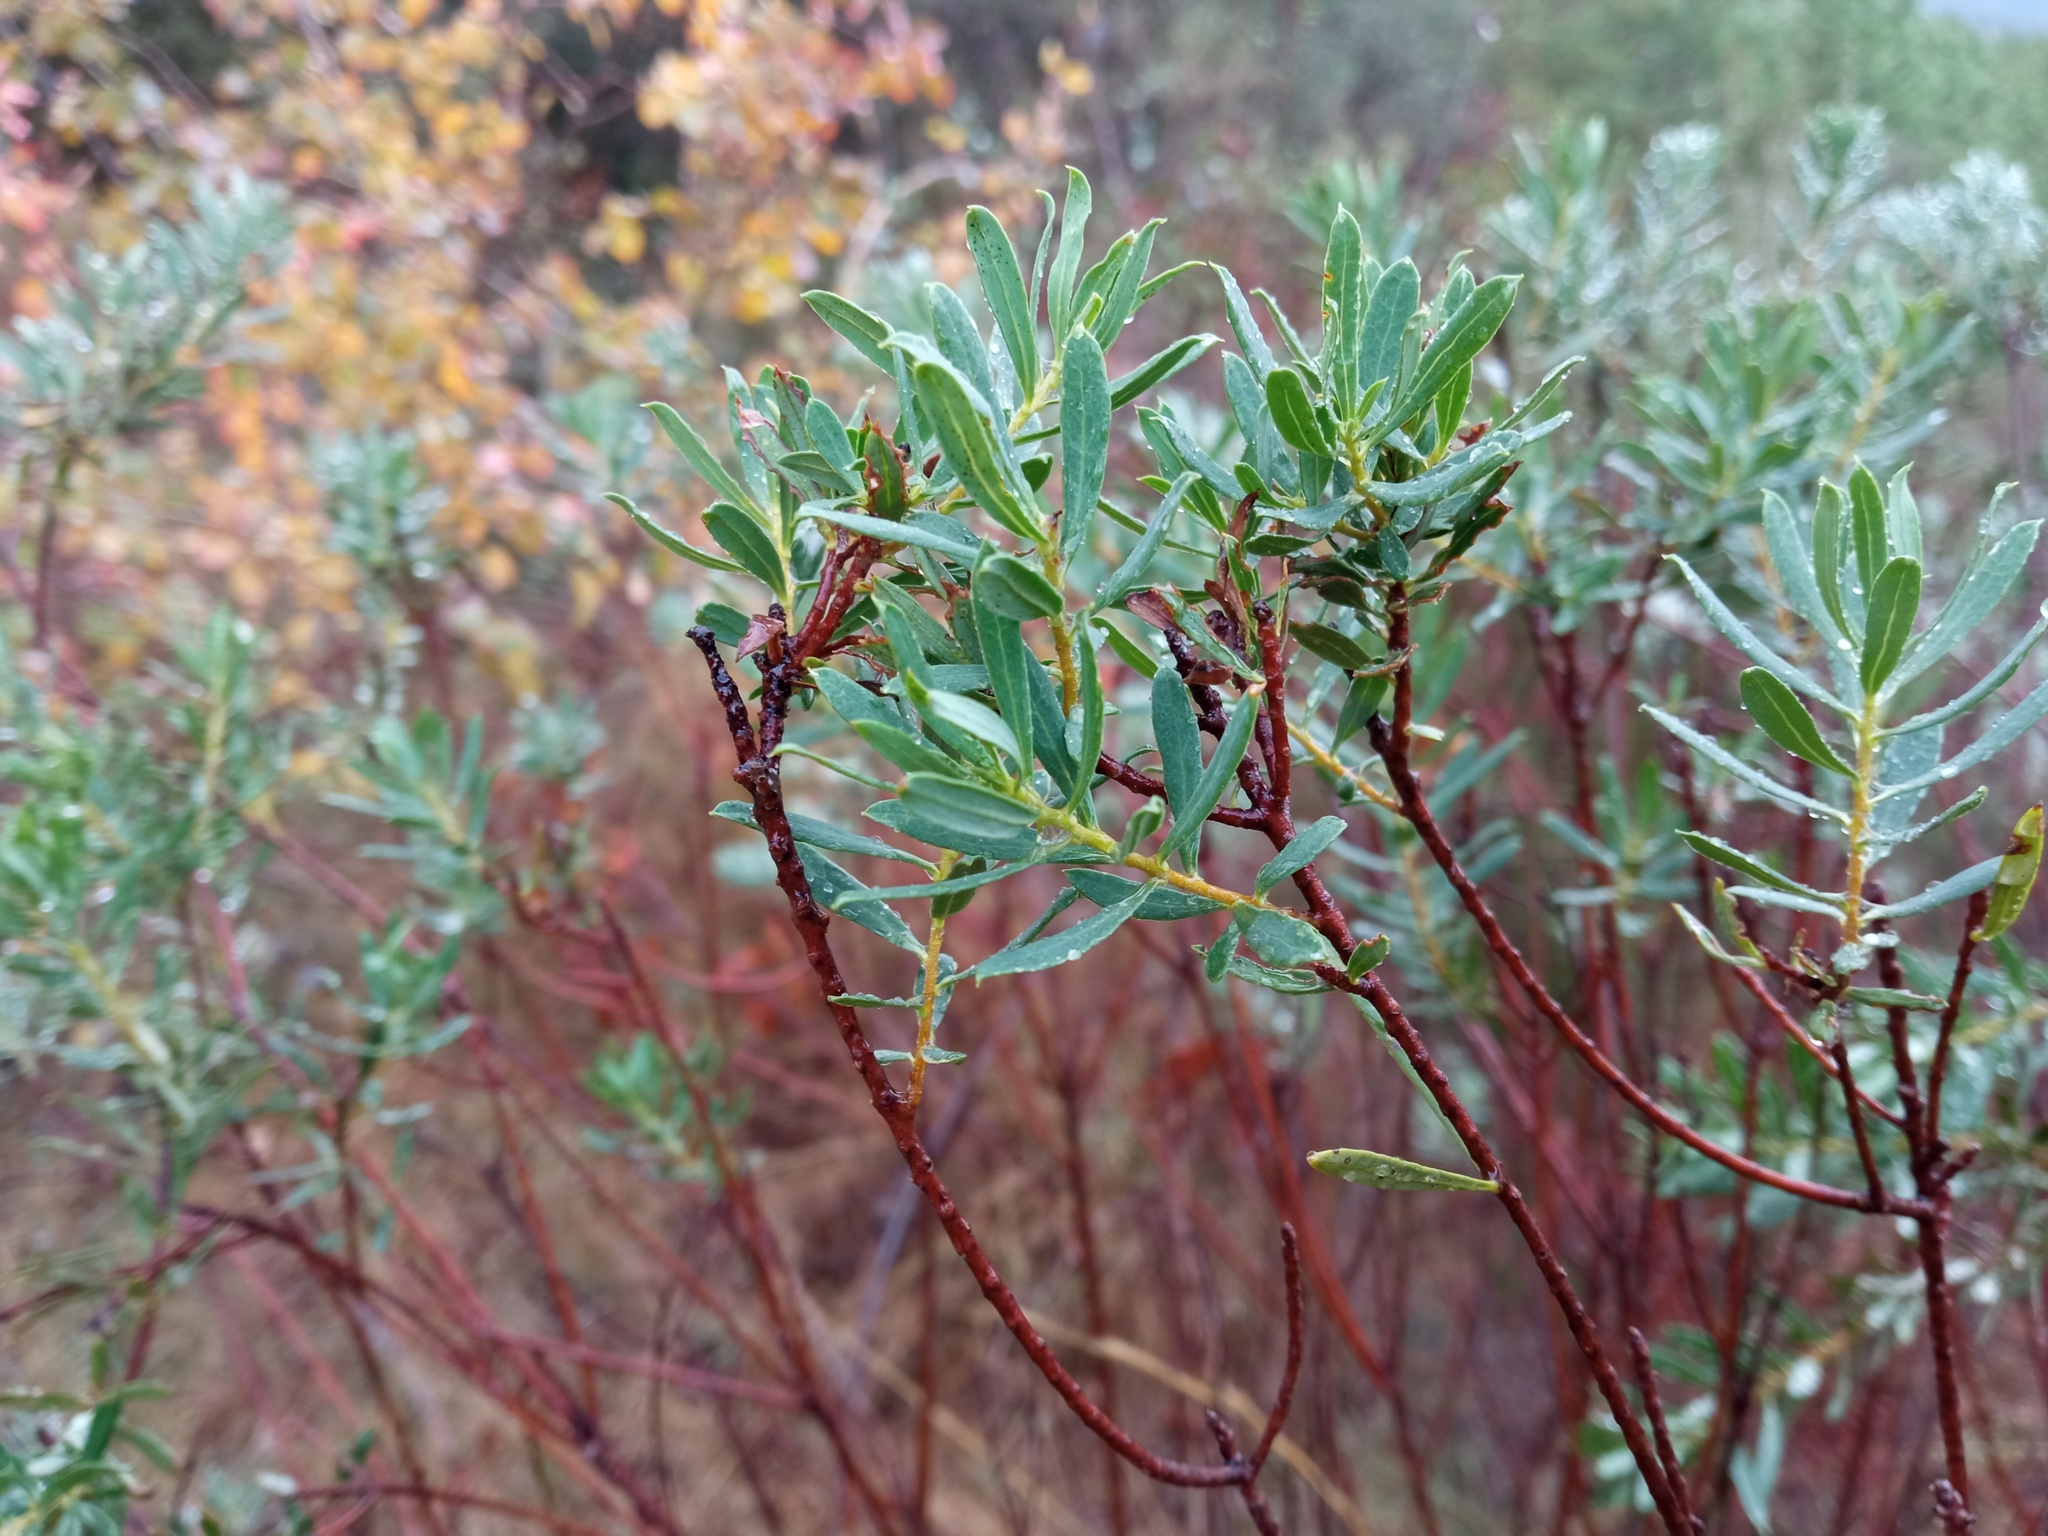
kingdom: Plantae
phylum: Tracheophyta
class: Magnoliopsida
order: Malvales
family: Thymelaeaceae
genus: Daphne
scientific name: Daphne gnidium
